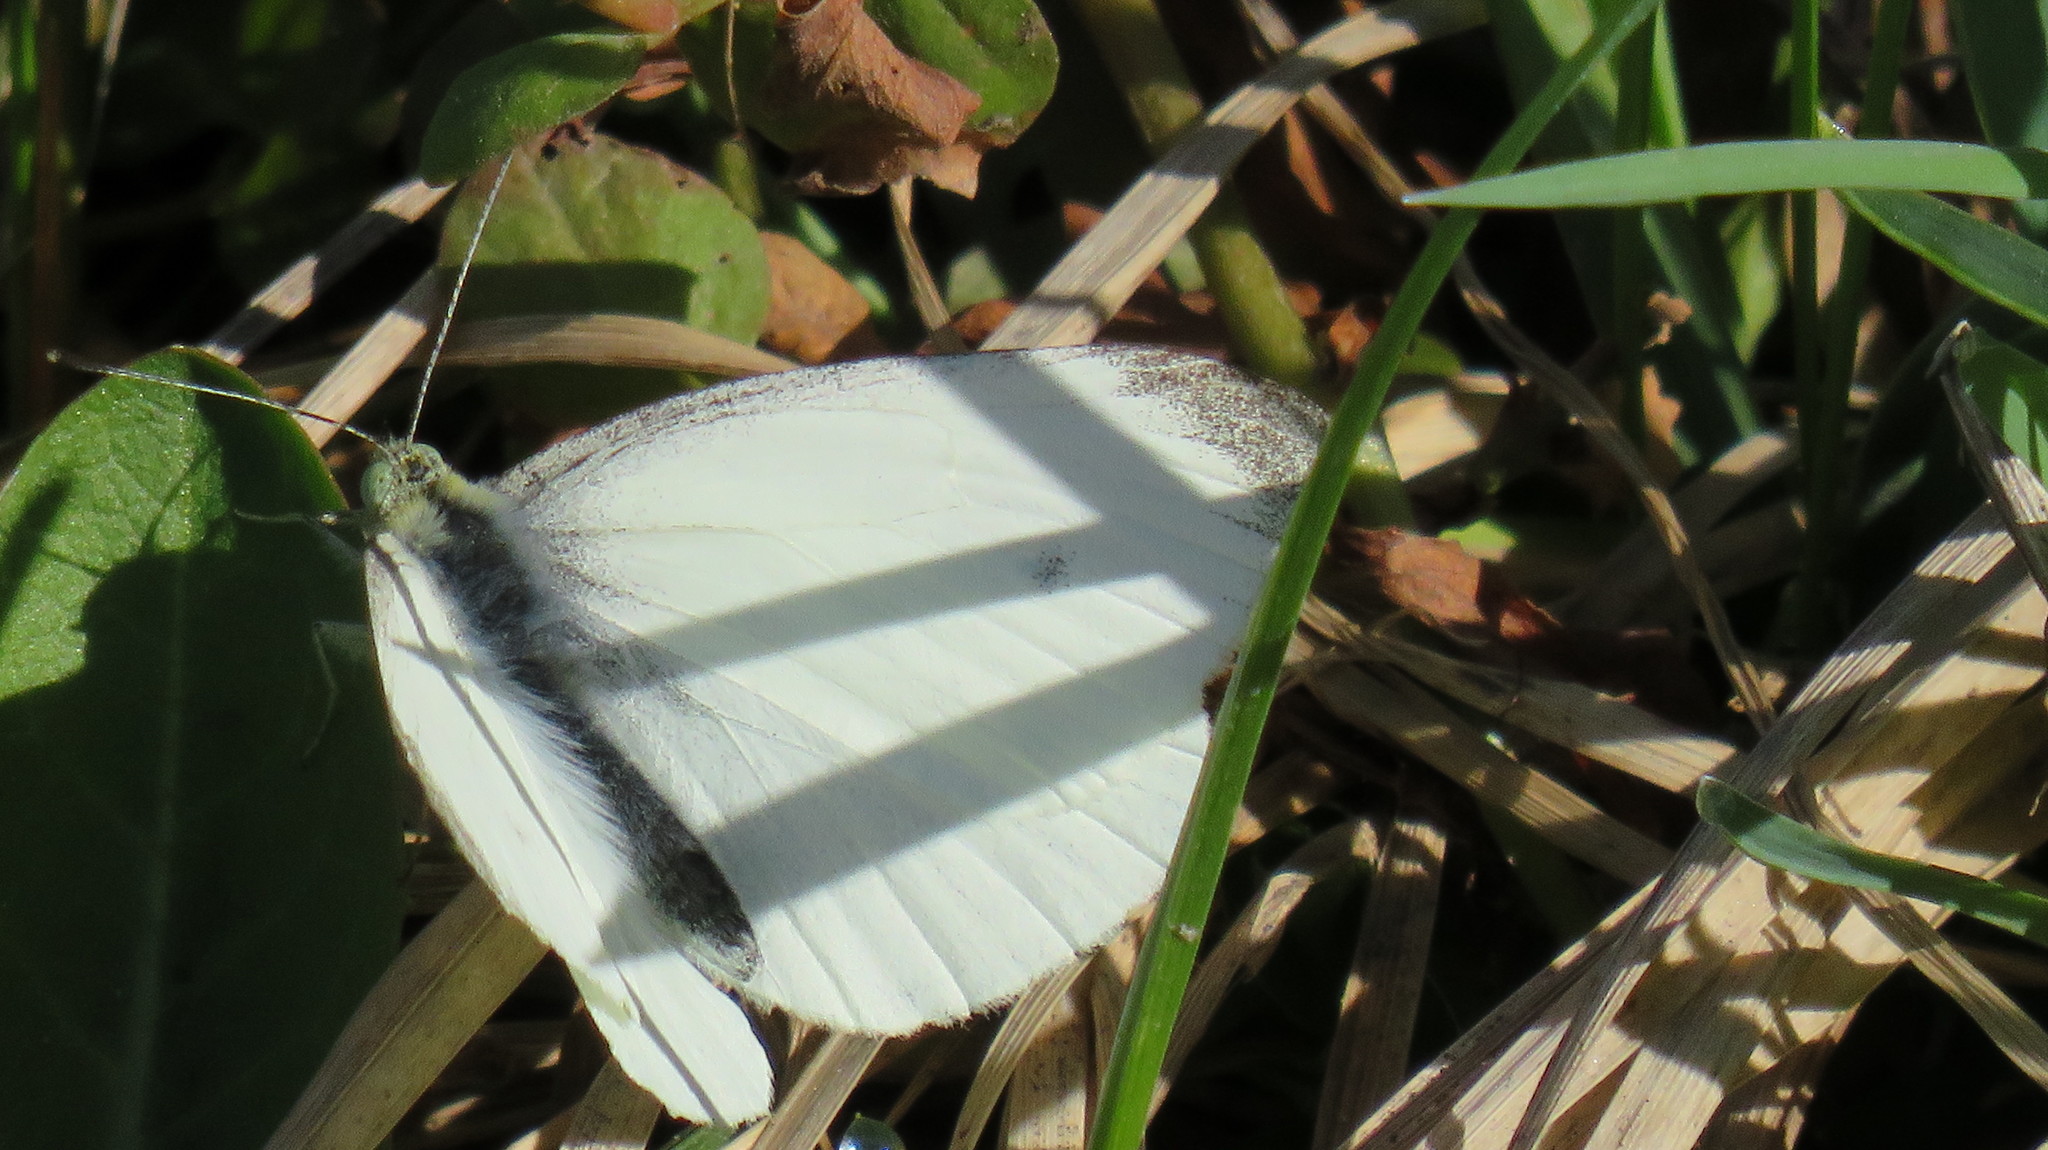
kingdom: Animalia
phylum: Arthropoda
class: Insecta
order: Lepidoptera
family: Pieridae
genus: Pieris
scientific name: Pieris rapae
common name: Small white
